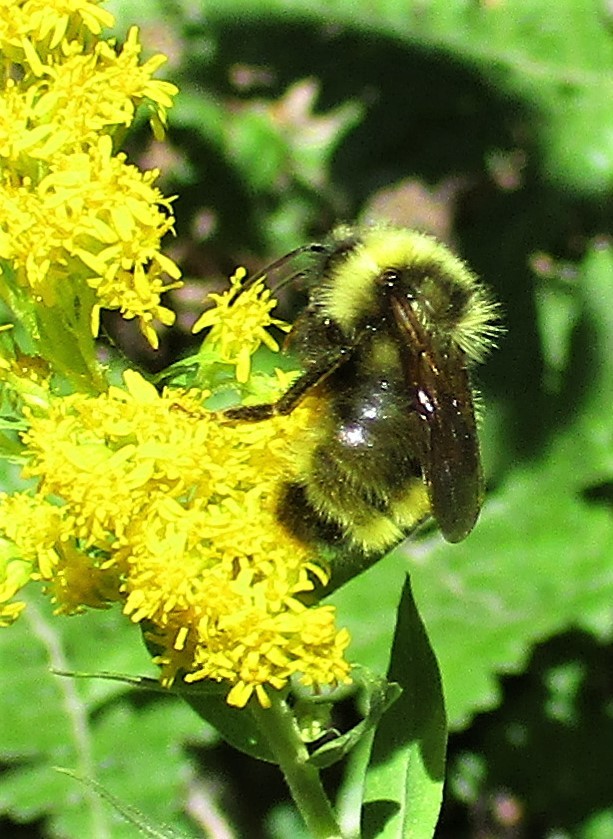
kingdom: Animalia
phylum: Arthropoda
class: Insecta
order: Hymenoptera
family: Apidae
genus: Bombus
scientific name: Bombus flavidus
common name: Fernald cuckoo bumble bee
